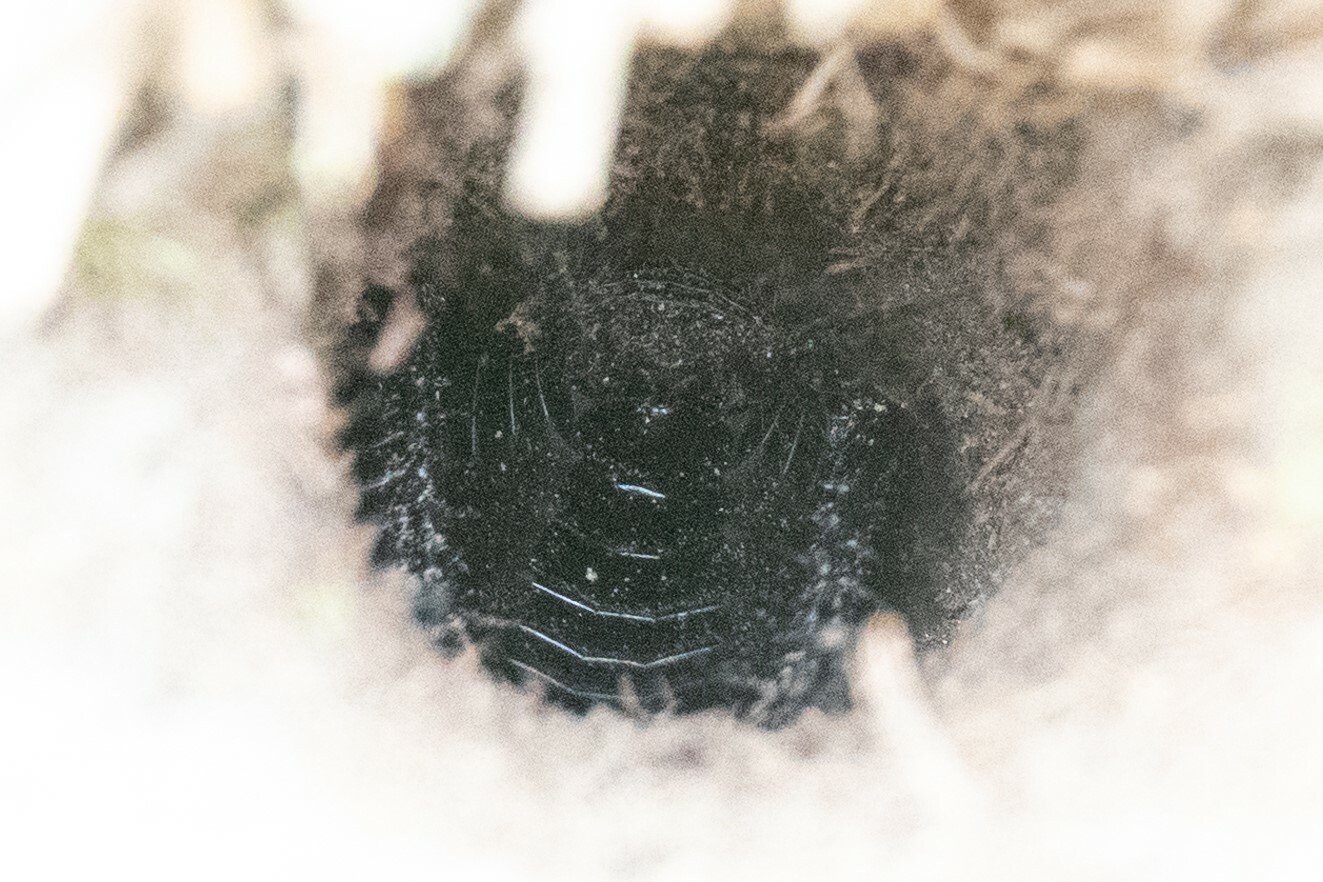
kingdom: Animalia
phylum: Arthropoda
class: Insecta
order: Orthoptera
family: Gryllidae
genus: Gryllus
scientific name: Gryllus campestris
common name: Field cricket
